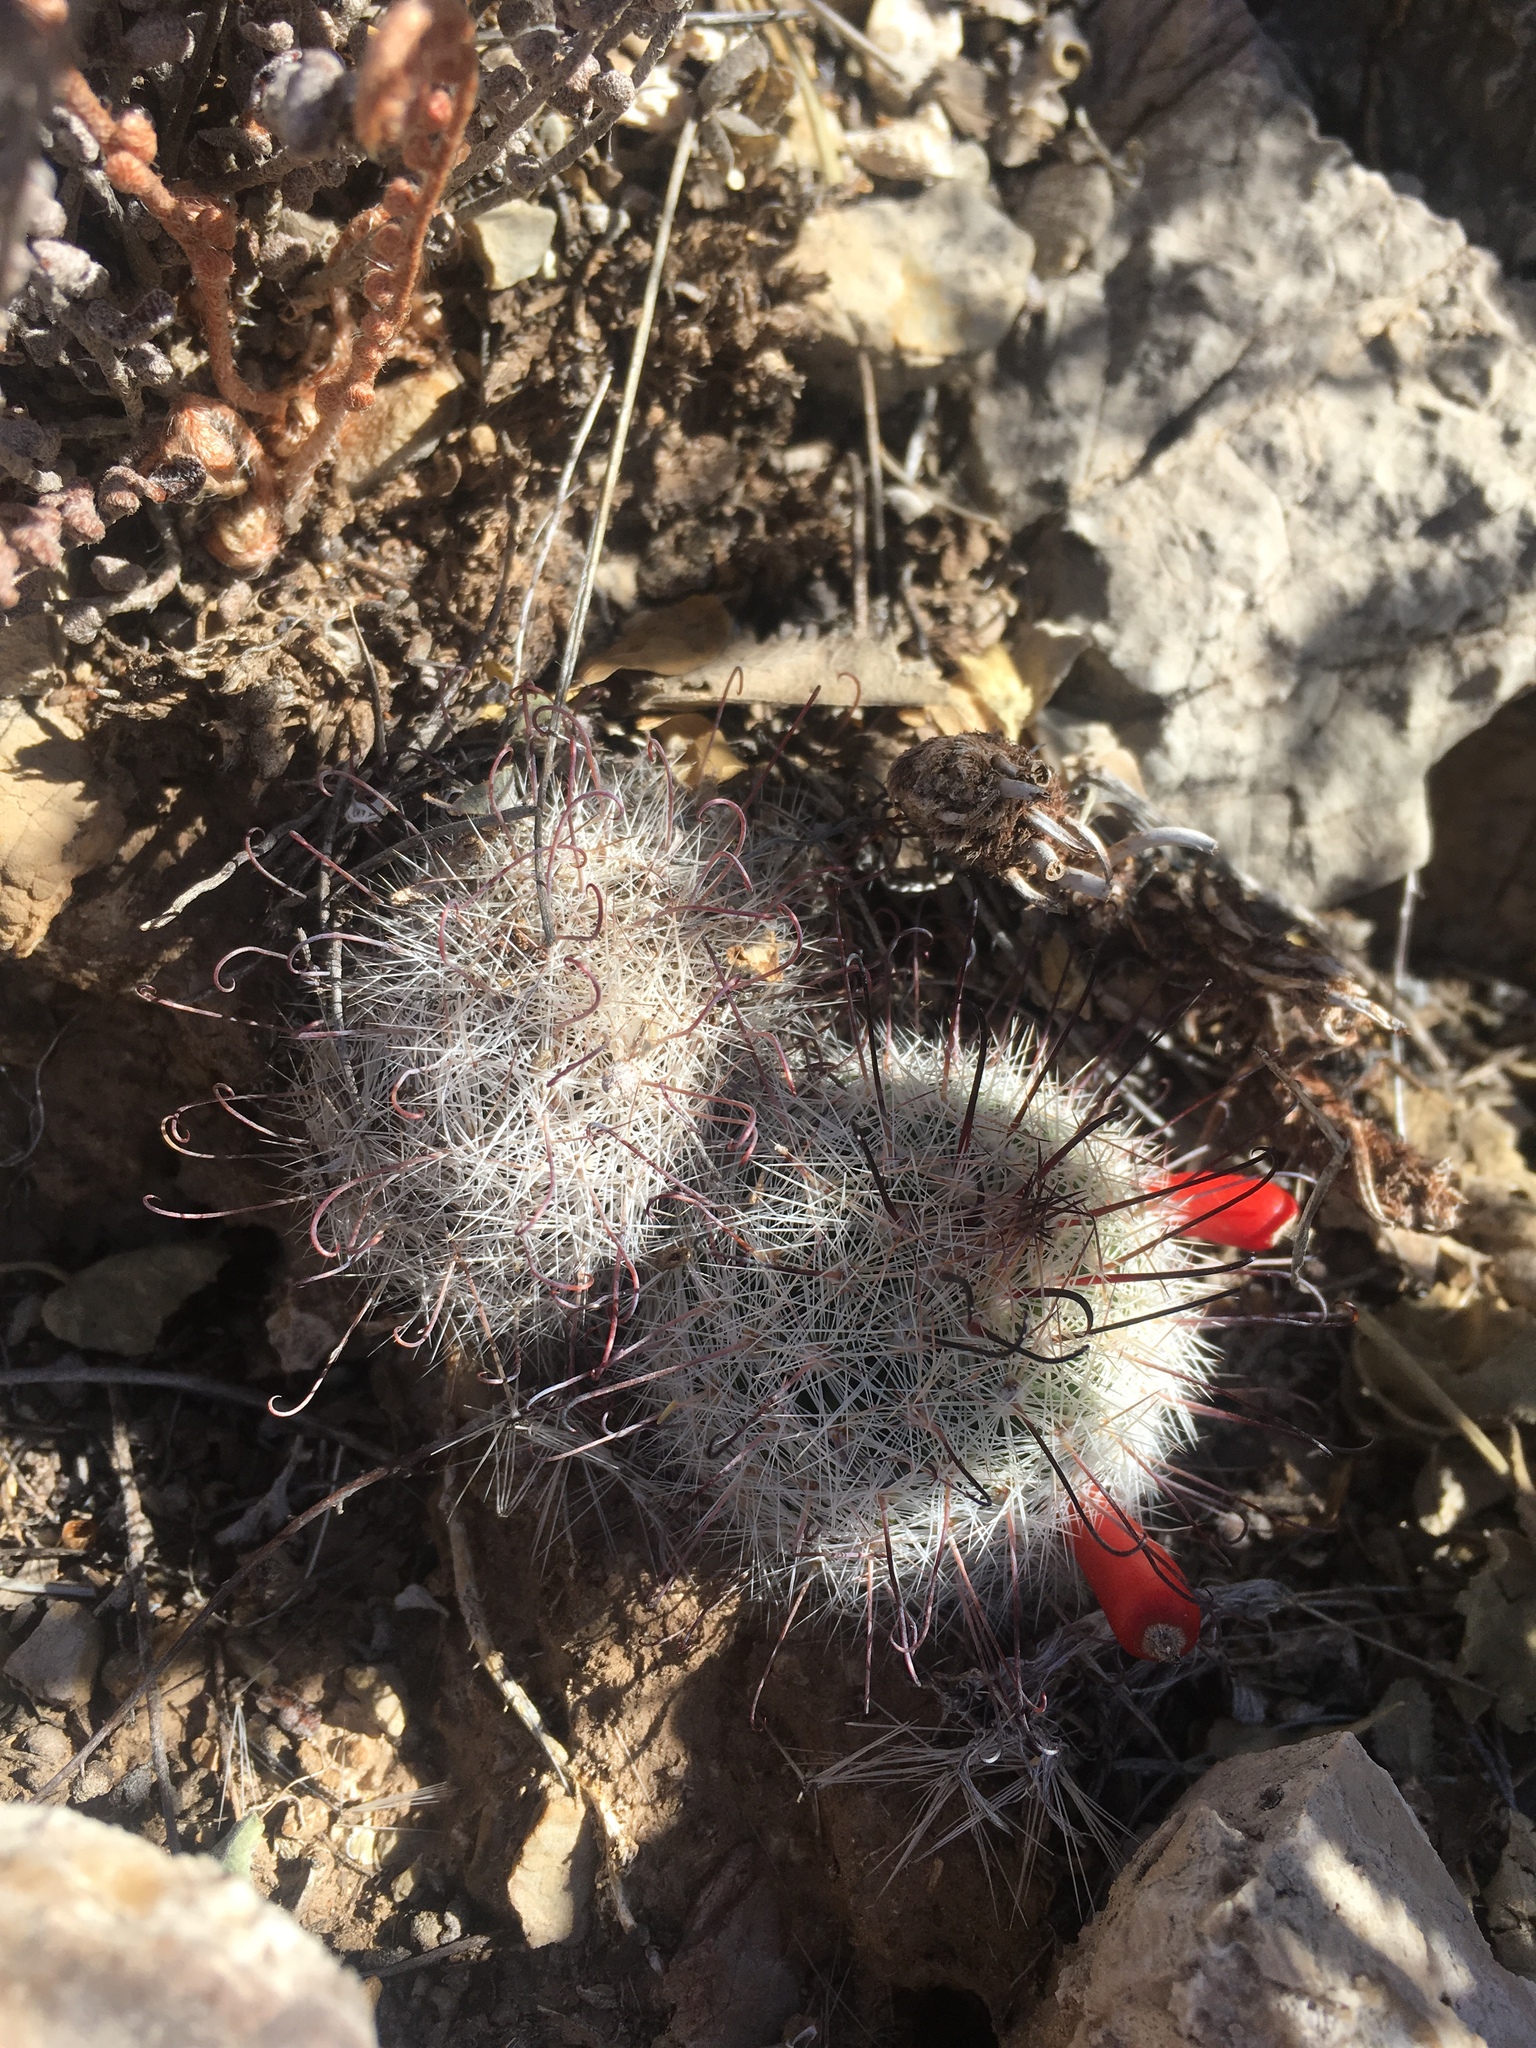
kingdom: Plantae
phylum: Tracheophyta
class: Magnoliopsida
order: Caryophyllales
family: Cactaceae
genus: Cochemiea
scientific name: Cochemiea grahamii
